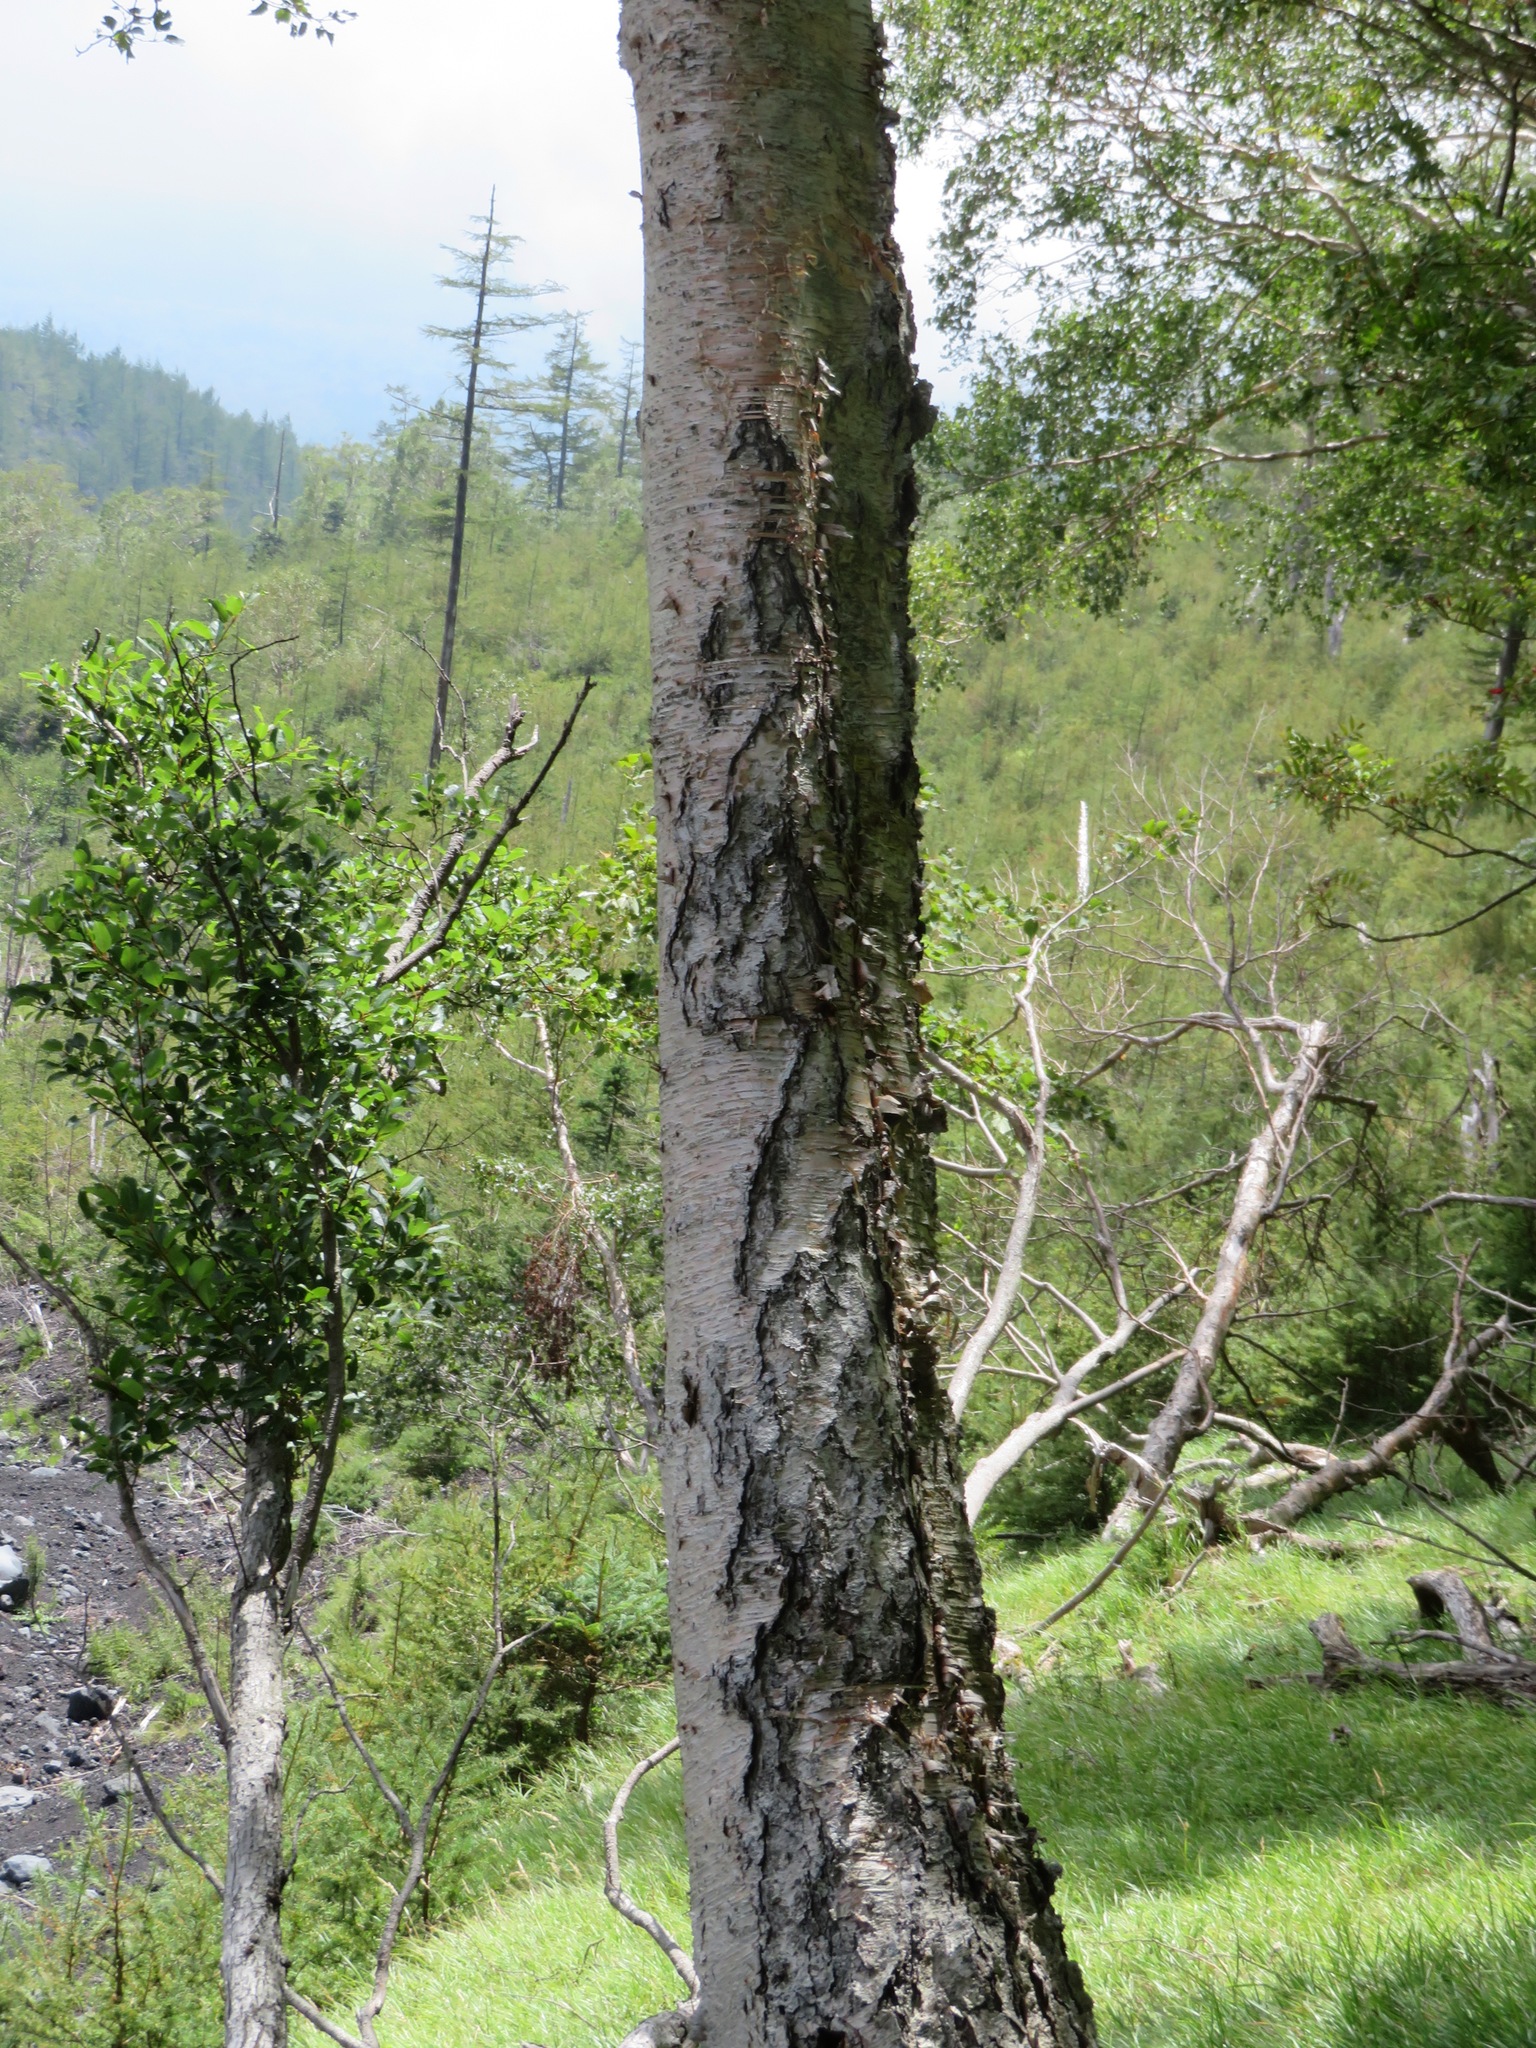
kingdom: Plantae
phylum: Tracheophyta
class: Magnoliopsida
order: Fagales
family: Betulaceae
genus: Betula
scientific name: Betula ermanii
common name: Erman's birch
